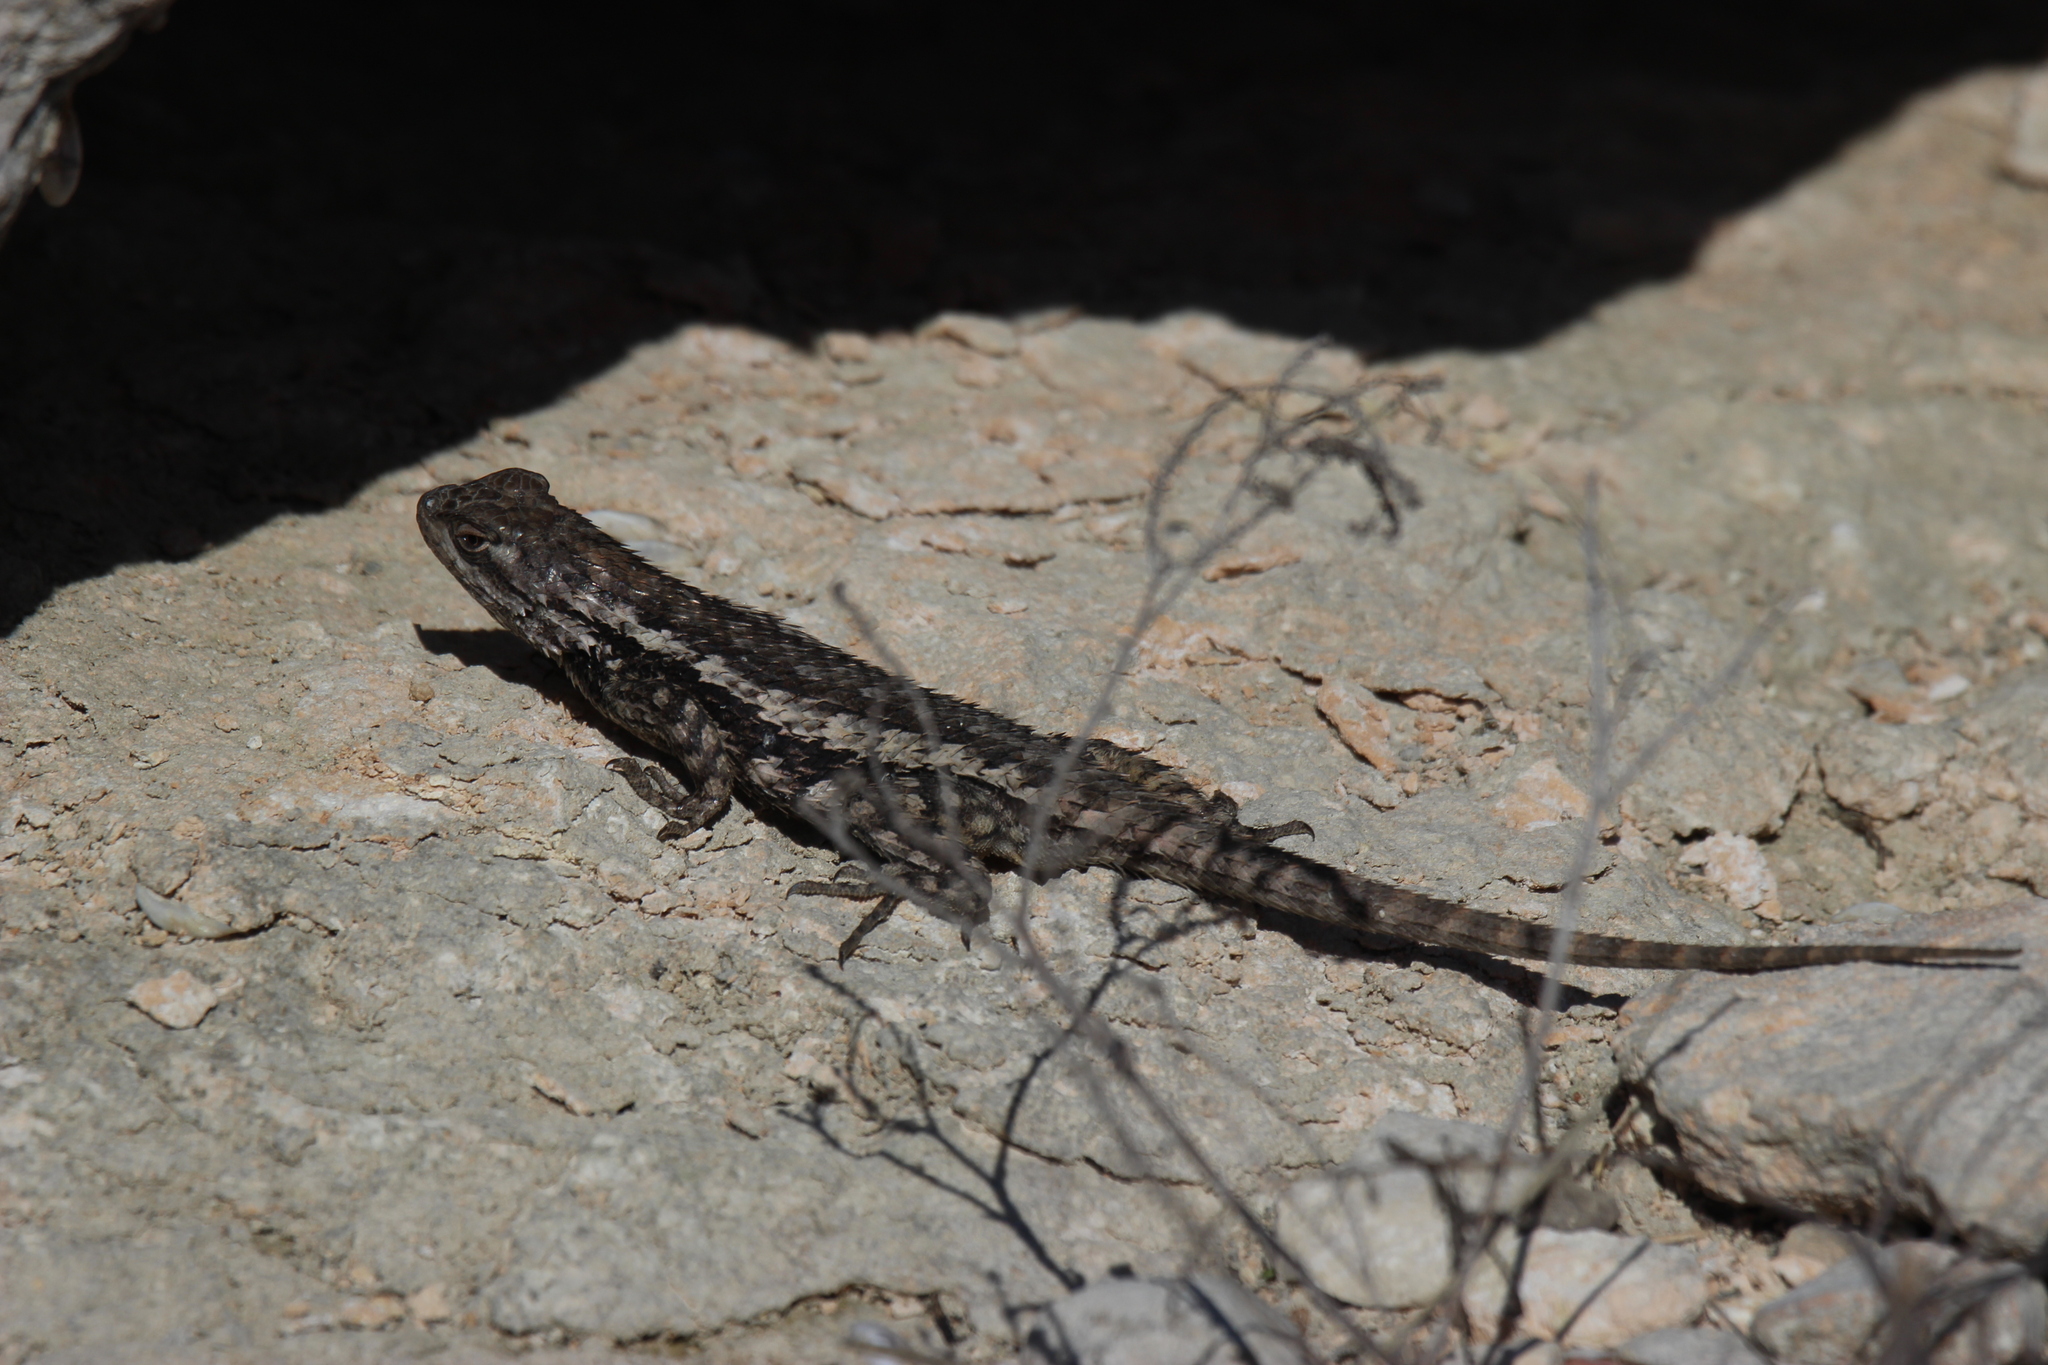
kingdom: Animalia
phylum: Chordata
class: Squamata
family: Phrynosomatidae
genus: Sceloporus
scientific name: Sceloporus olivaceus
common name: Texas spiny lizard
